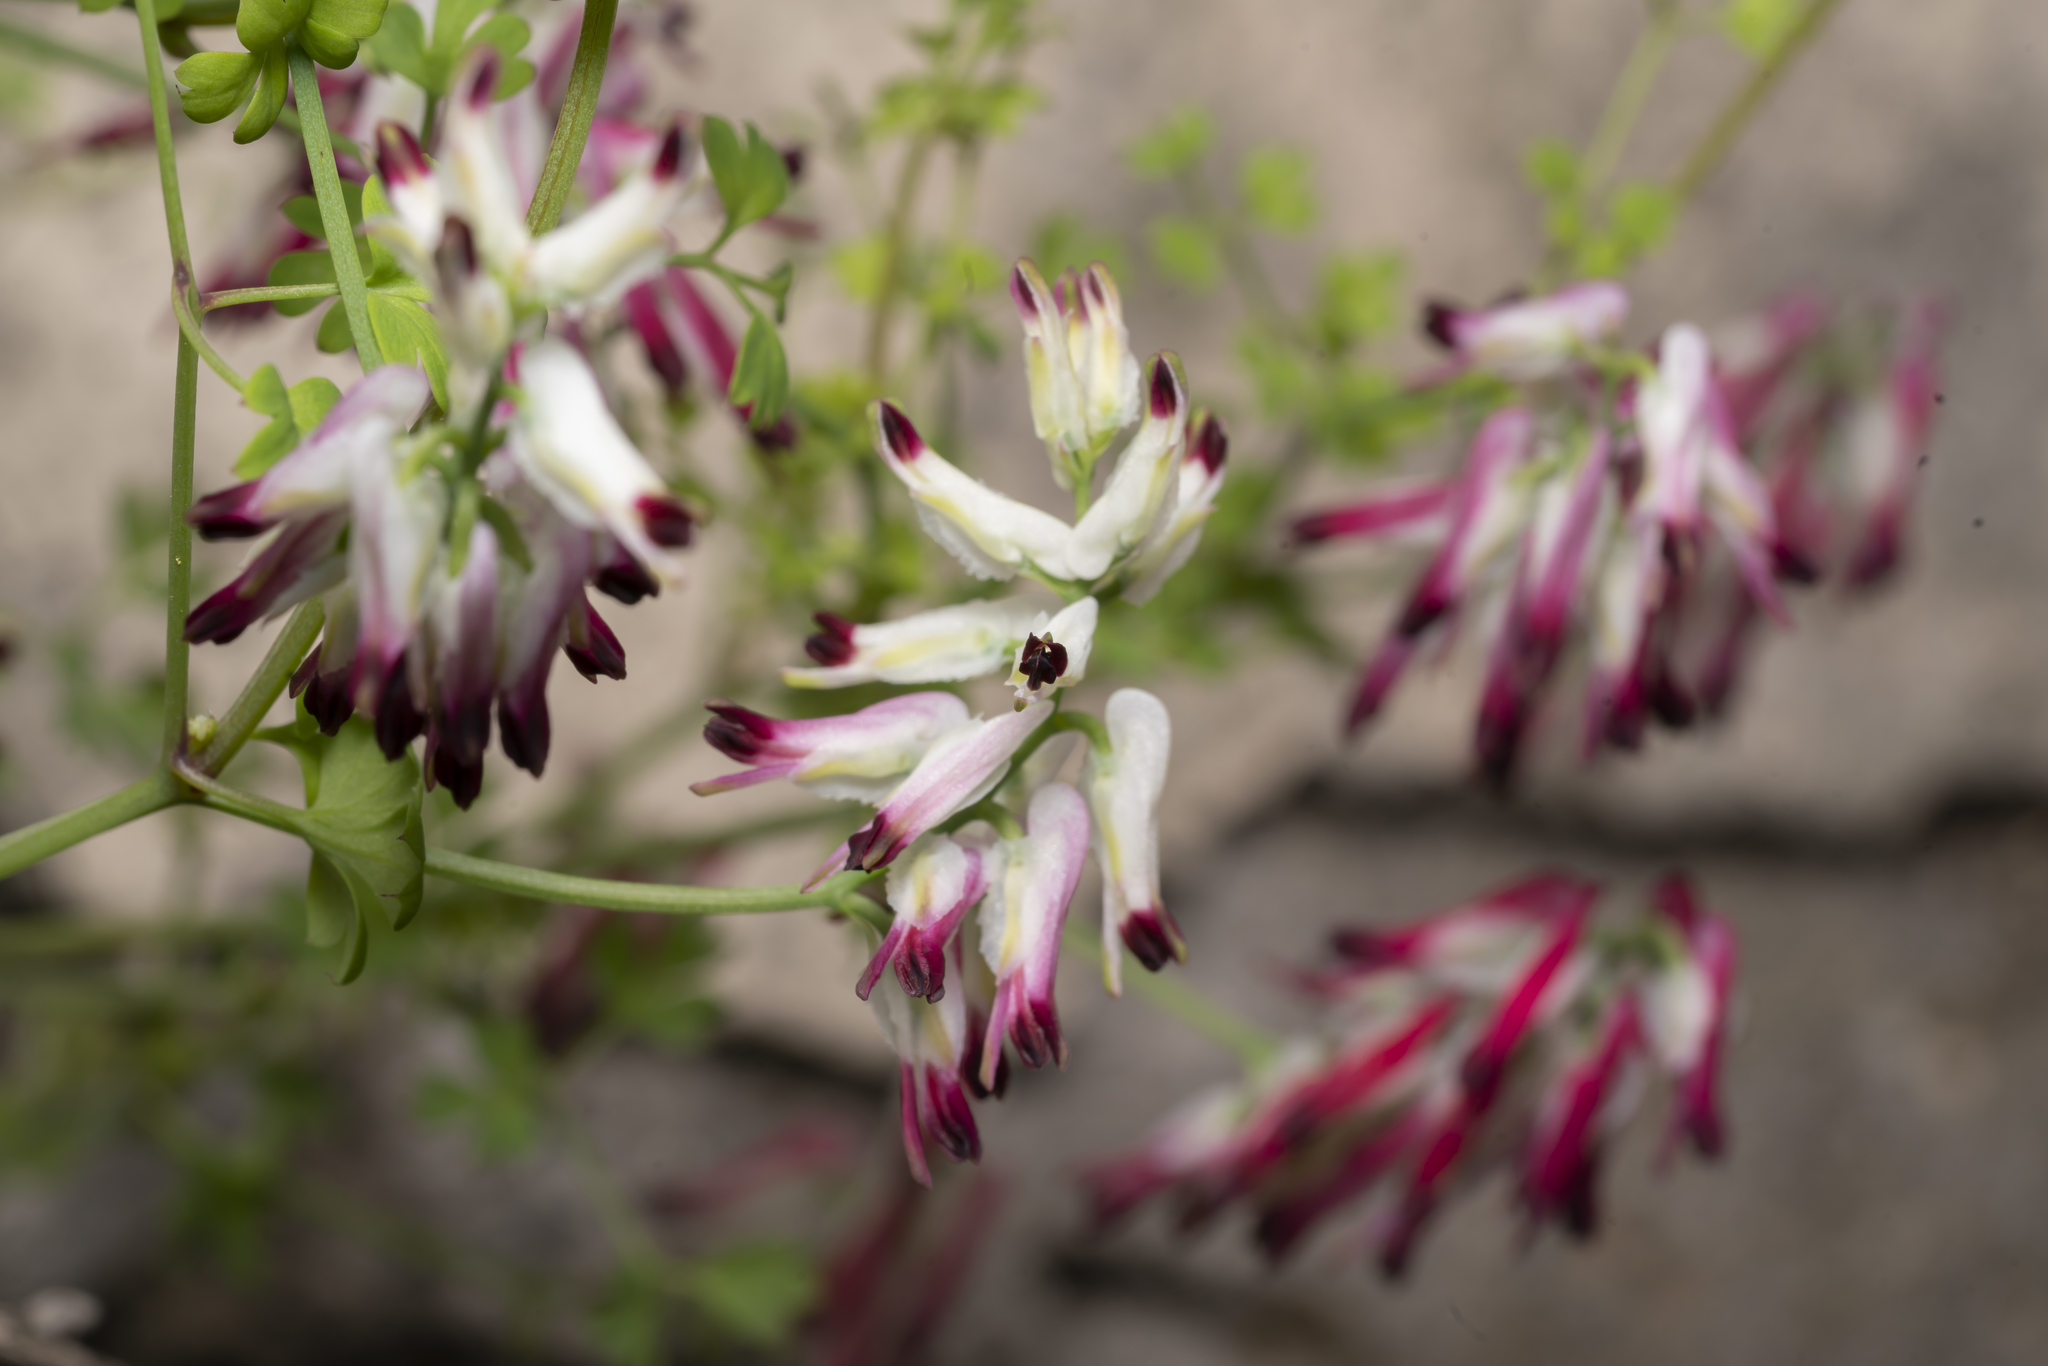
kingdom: Plantae
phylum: Tracheophyta
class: Magnoliopsida
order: Ranunculales
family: Papaveraceae
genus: Fumaria
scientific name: Fumaria capreolata
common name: White ramping-fumitory
